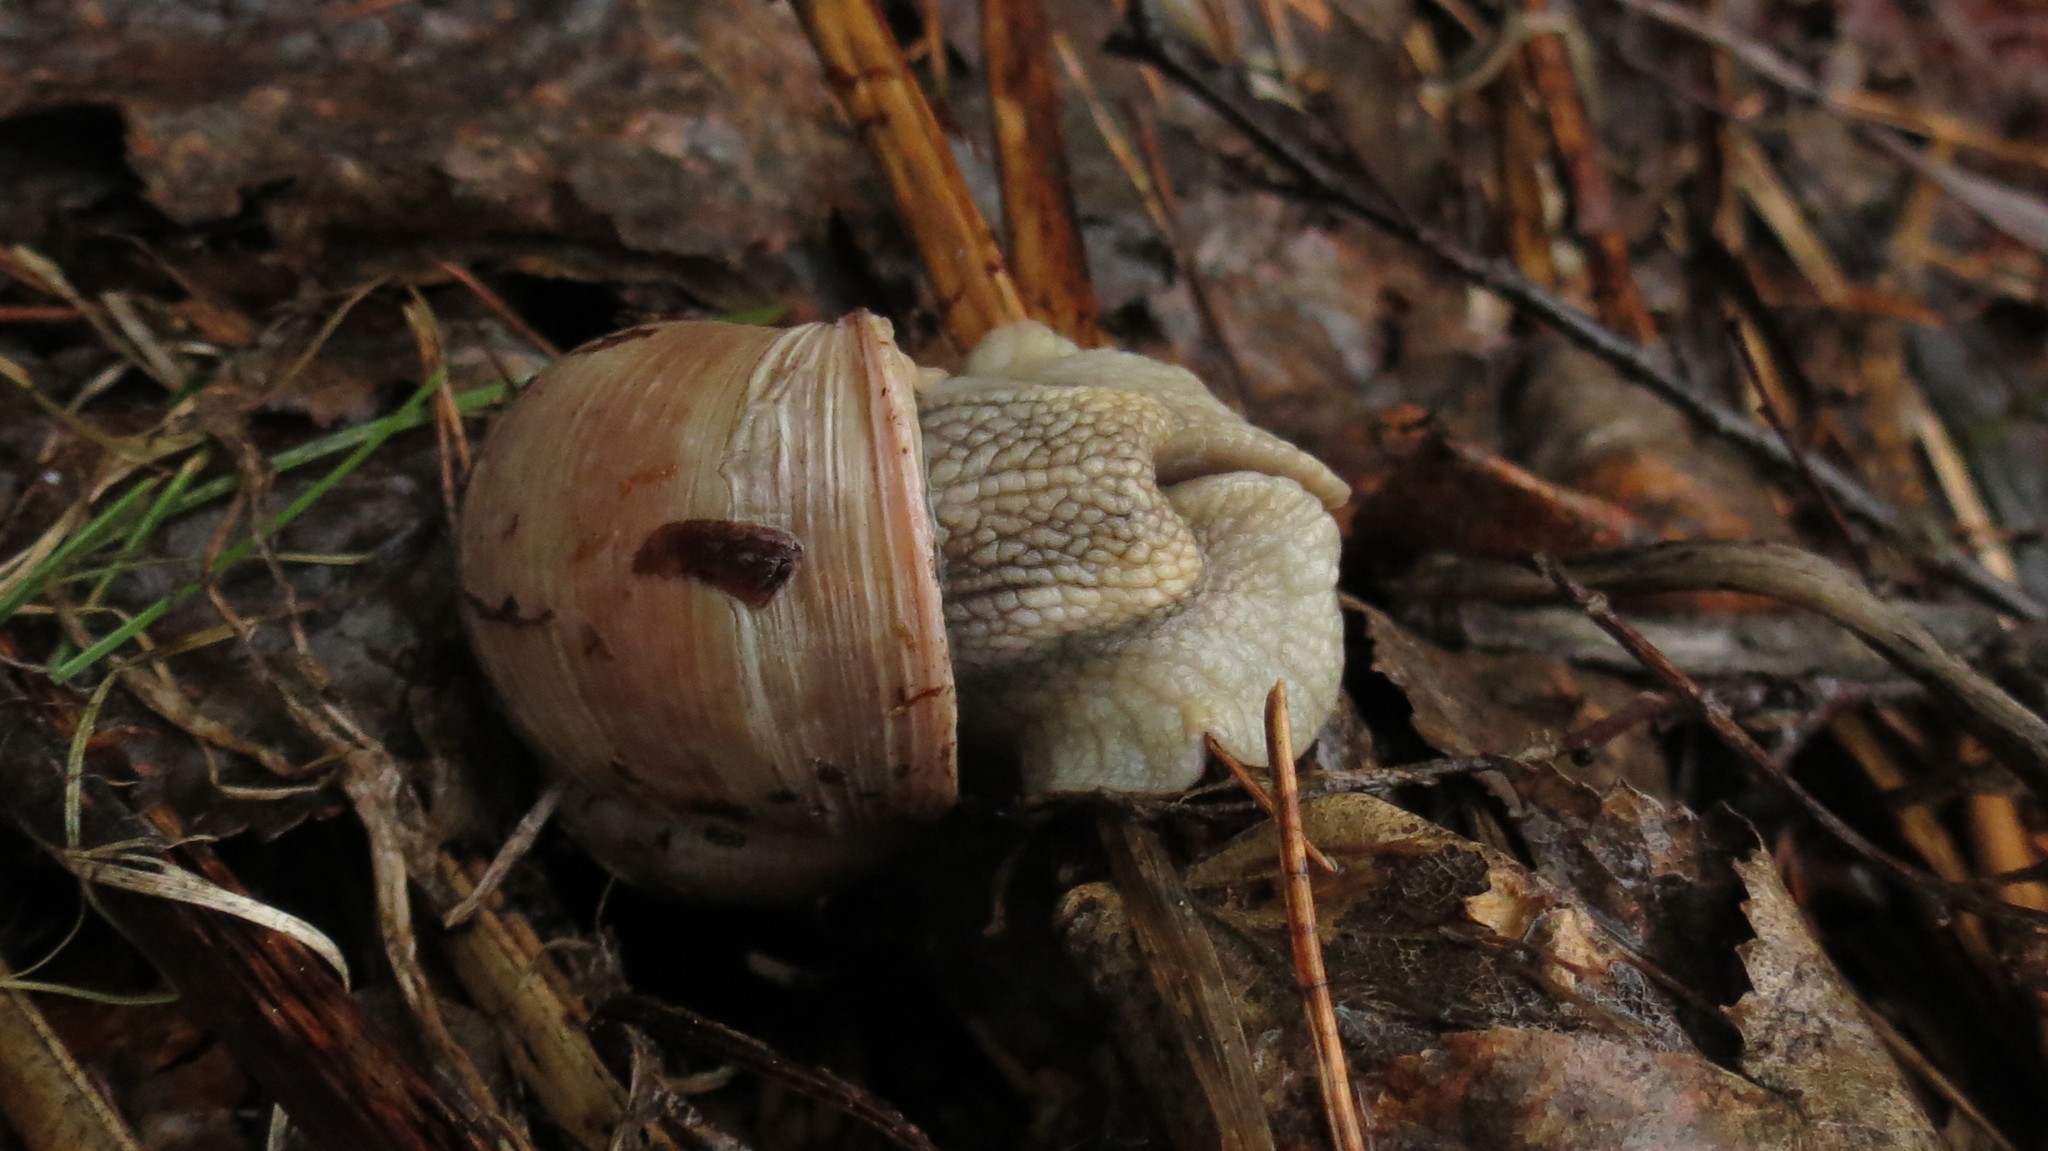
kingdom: Animalia
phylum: Mollusca
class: Gastropoda
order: Stylommatophora
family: Helicidae
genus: Helix
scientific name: Helix pomatia
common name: Roman snail
